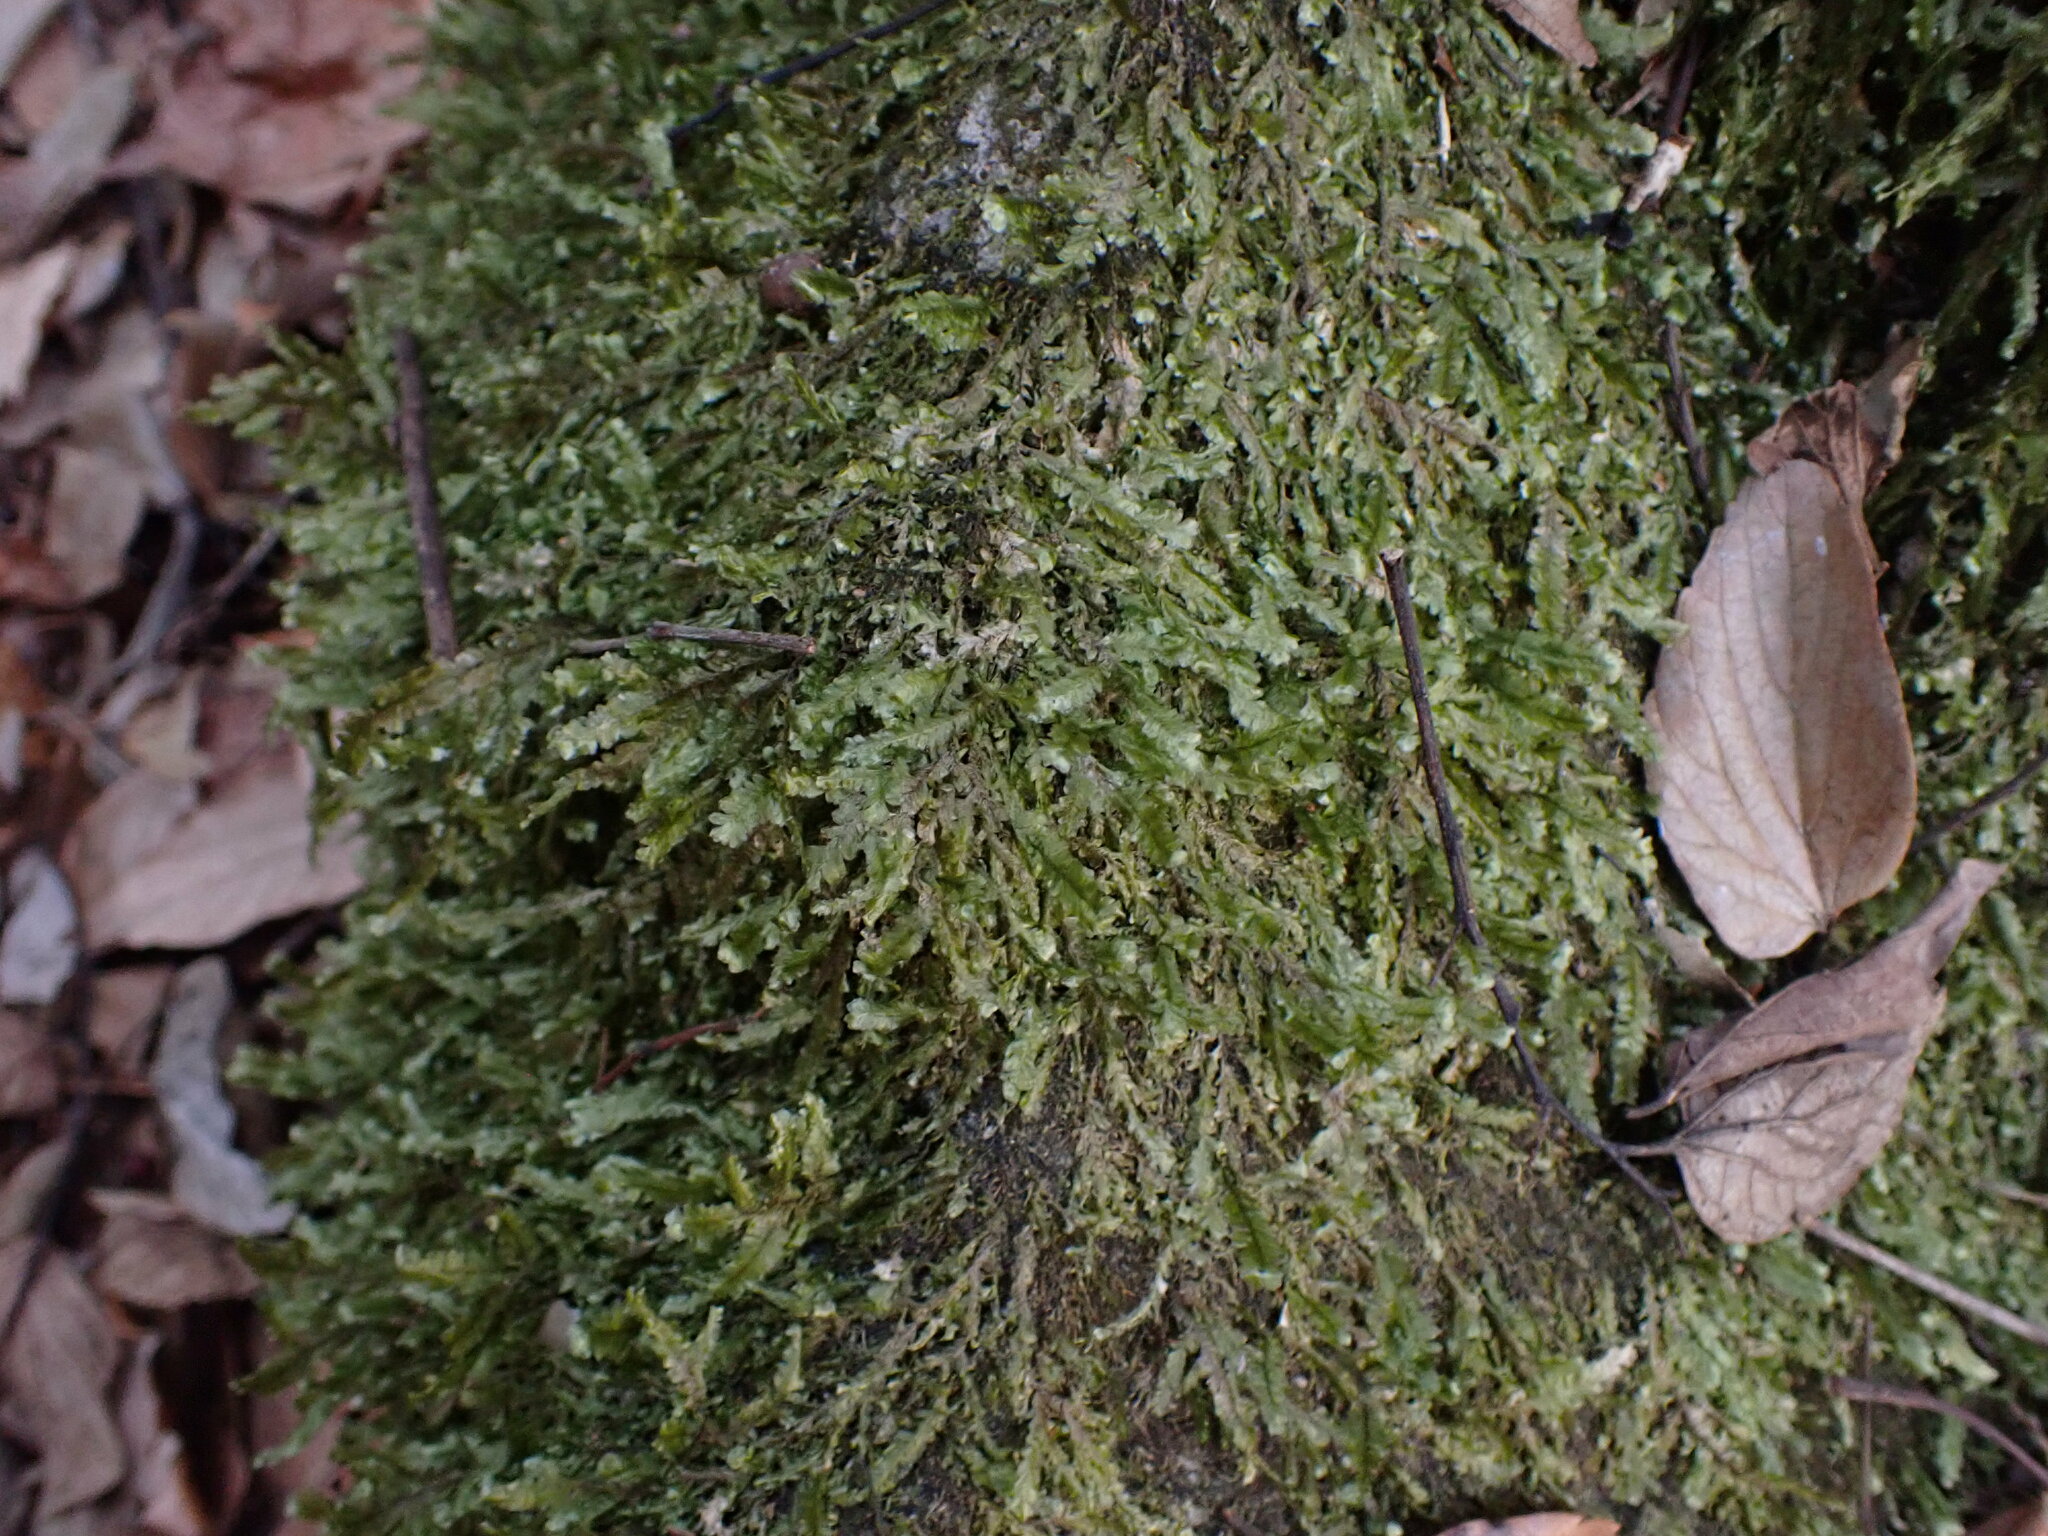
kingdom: Plantae
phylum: Bryophyta
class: Bryopsida
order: Hypnales
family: Neckeraceae
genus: Planicladium
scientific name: Planicladium nitidulum
